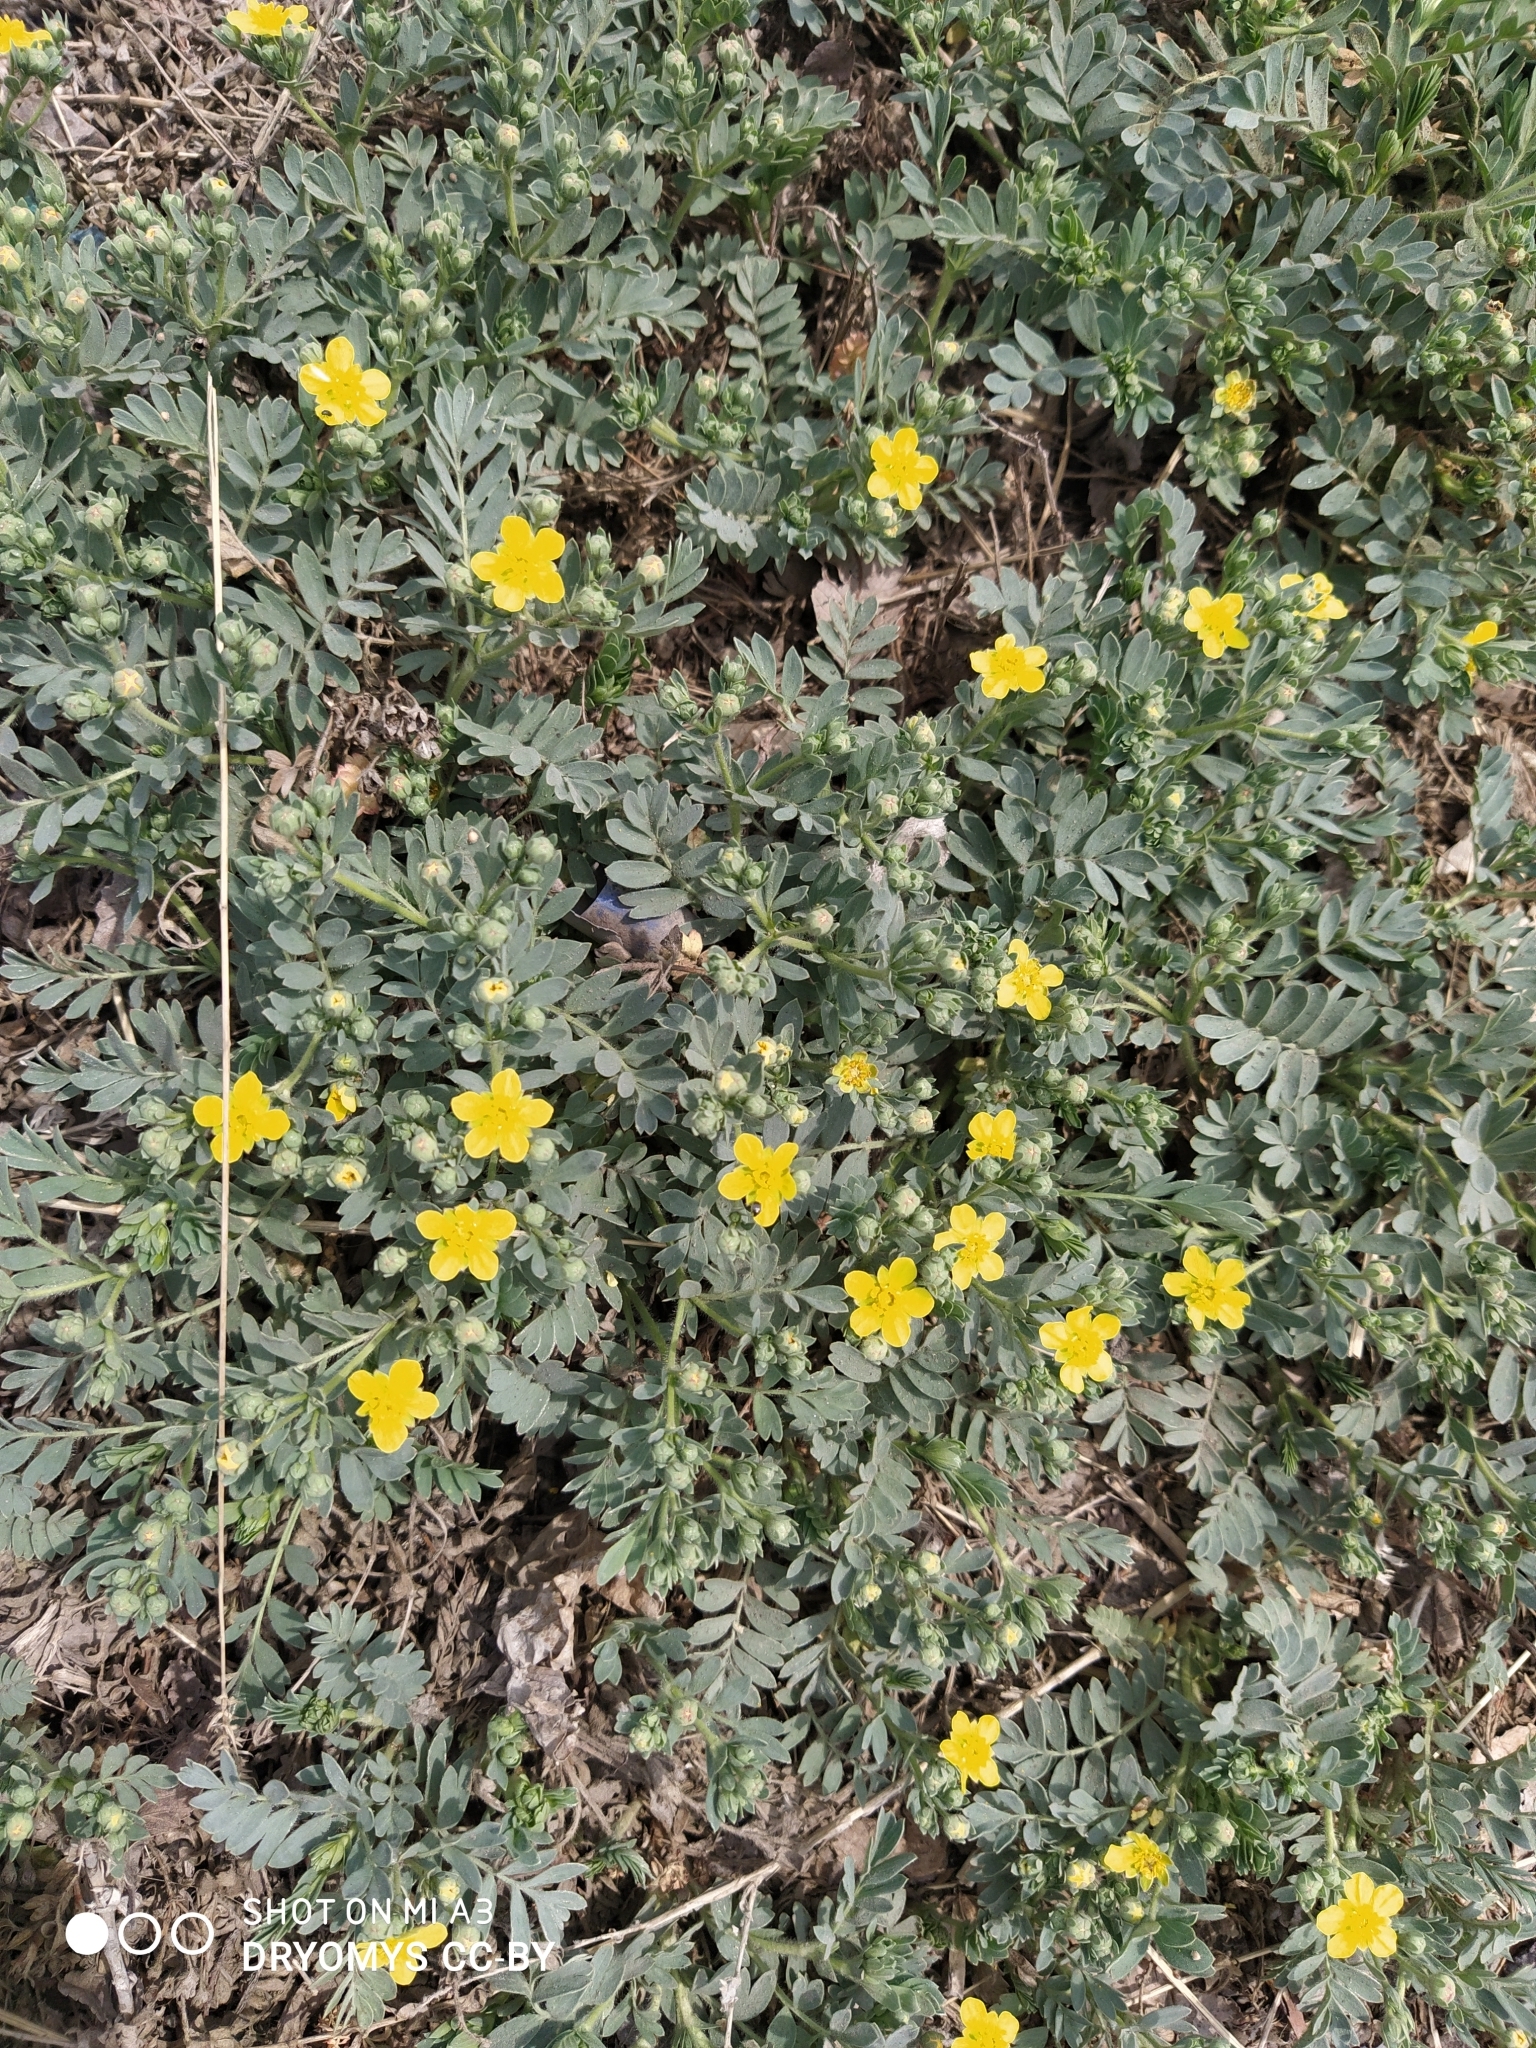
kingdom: Plantae
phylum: Tracheophyta
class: Magnoliopsida
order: Rosales
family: Rosaceae
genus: Sibbaldianthe
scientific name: Sibbaldianthe bifurca
